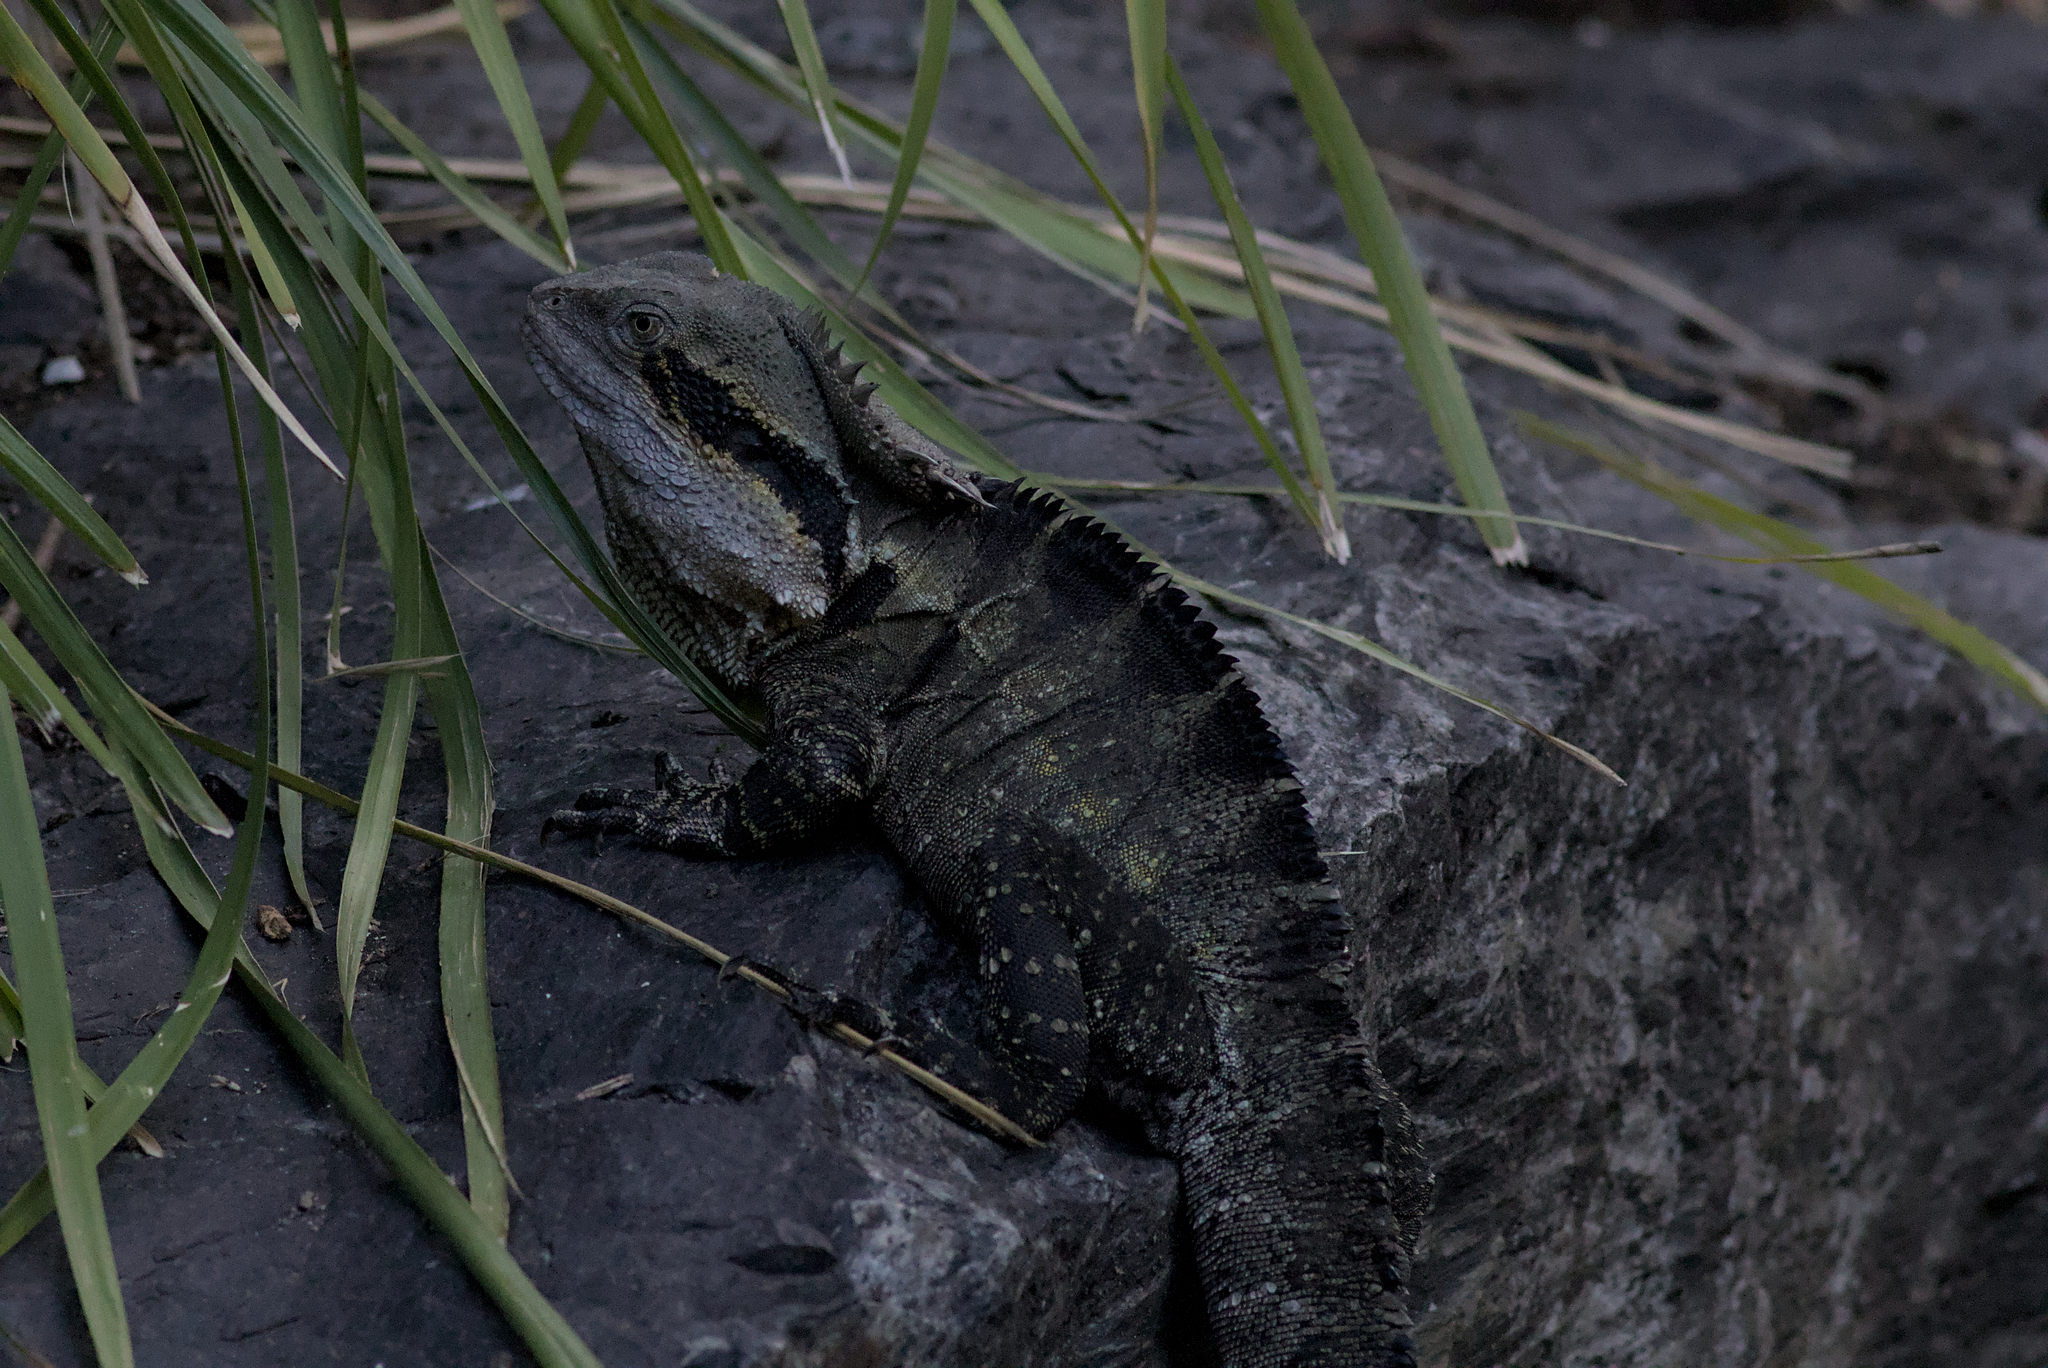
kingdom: Animalia
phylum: Chordata
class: Squamata
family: Agamidae
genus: Intellagama
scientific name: Intellagama lesueurii
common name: Eastern water dragon
